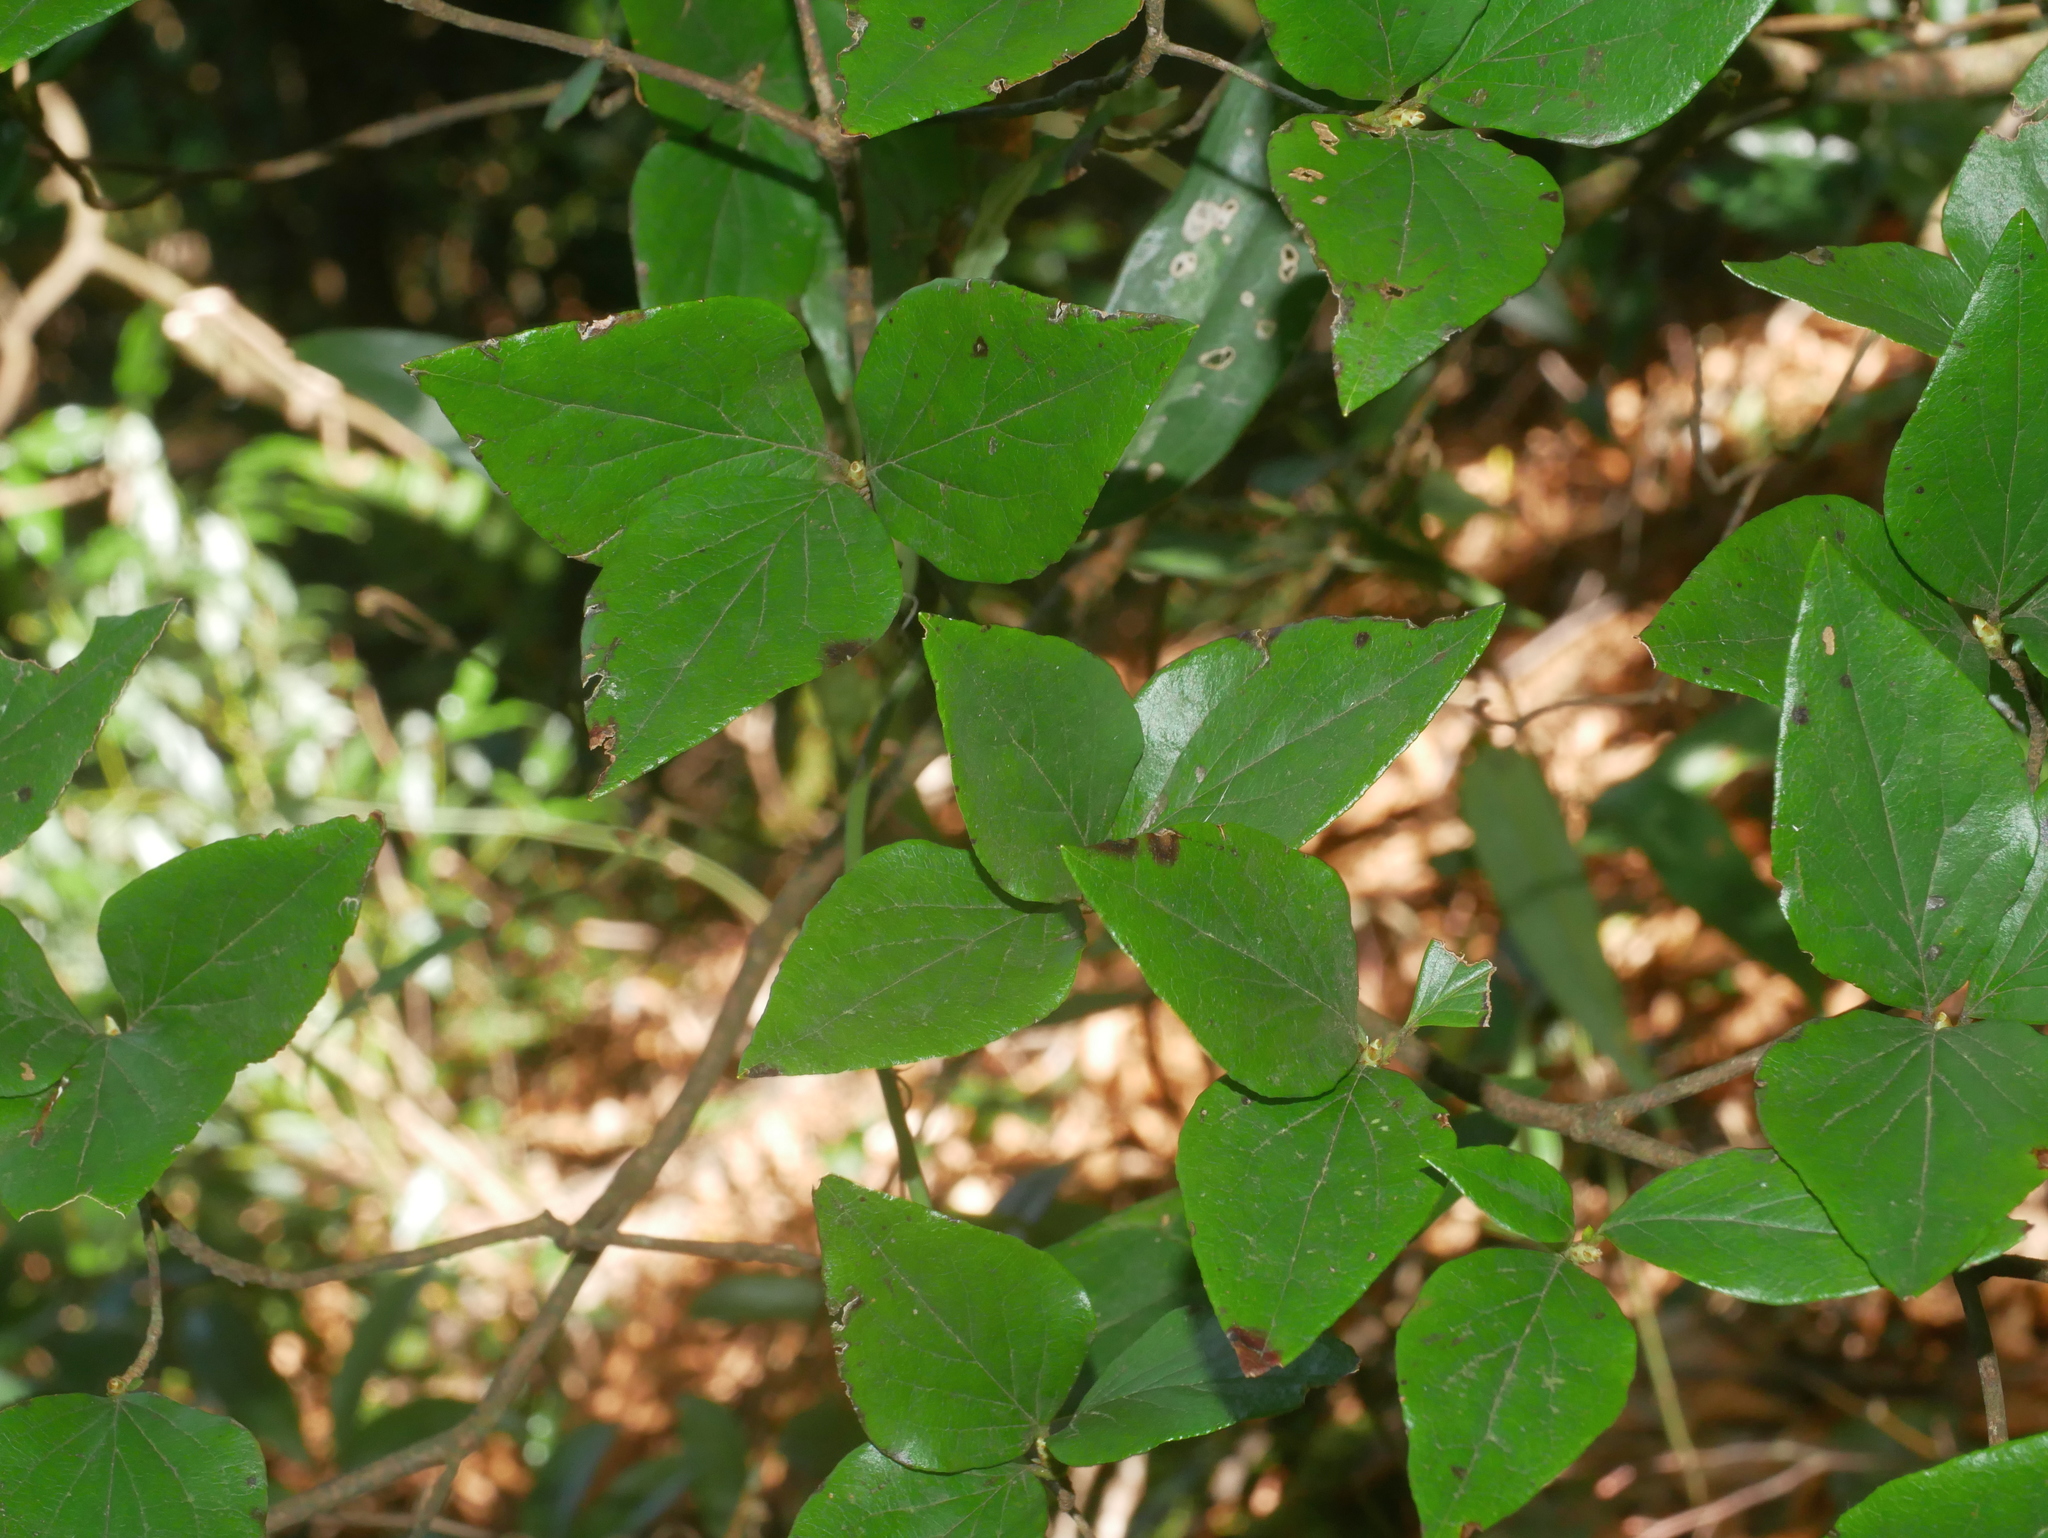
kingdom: Plantae
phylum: Tracheophyta
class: Magnoliopsida
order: Ericales
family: Ericaceae
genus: Rhododendron
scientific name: Rhododendron mariesii
